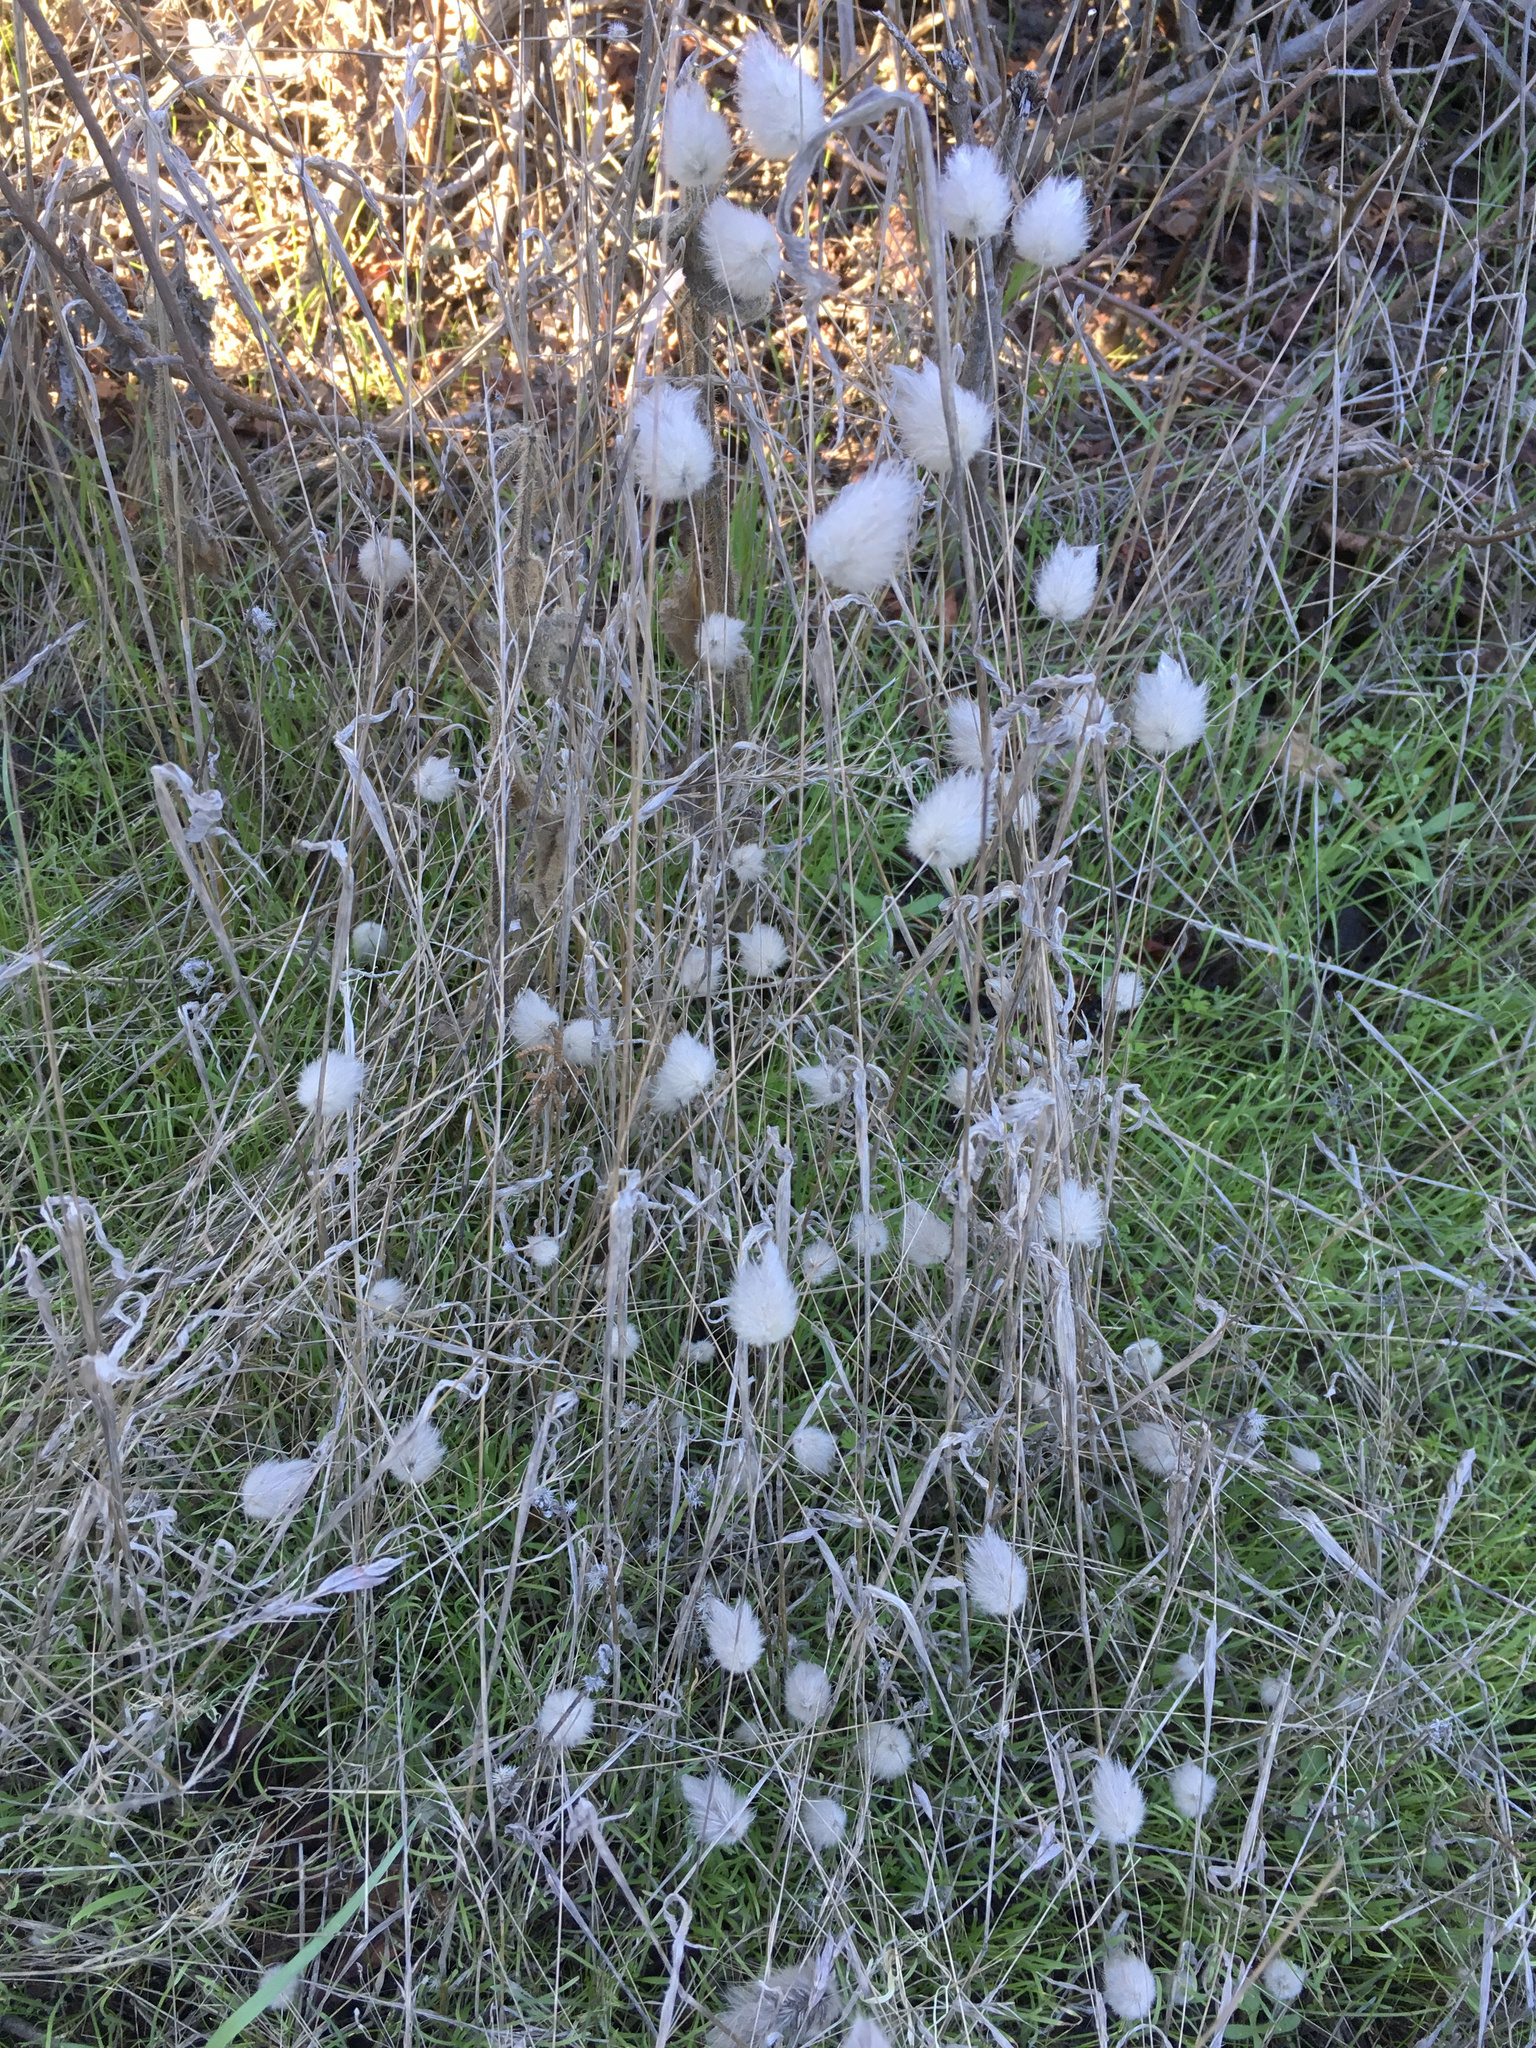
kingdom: Plantae
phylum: Tracheophyta
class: Liliopsida
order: Poales
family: Poaceae
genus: Lagurus
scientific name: Lagurus ovatus
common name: Hare's-tail
